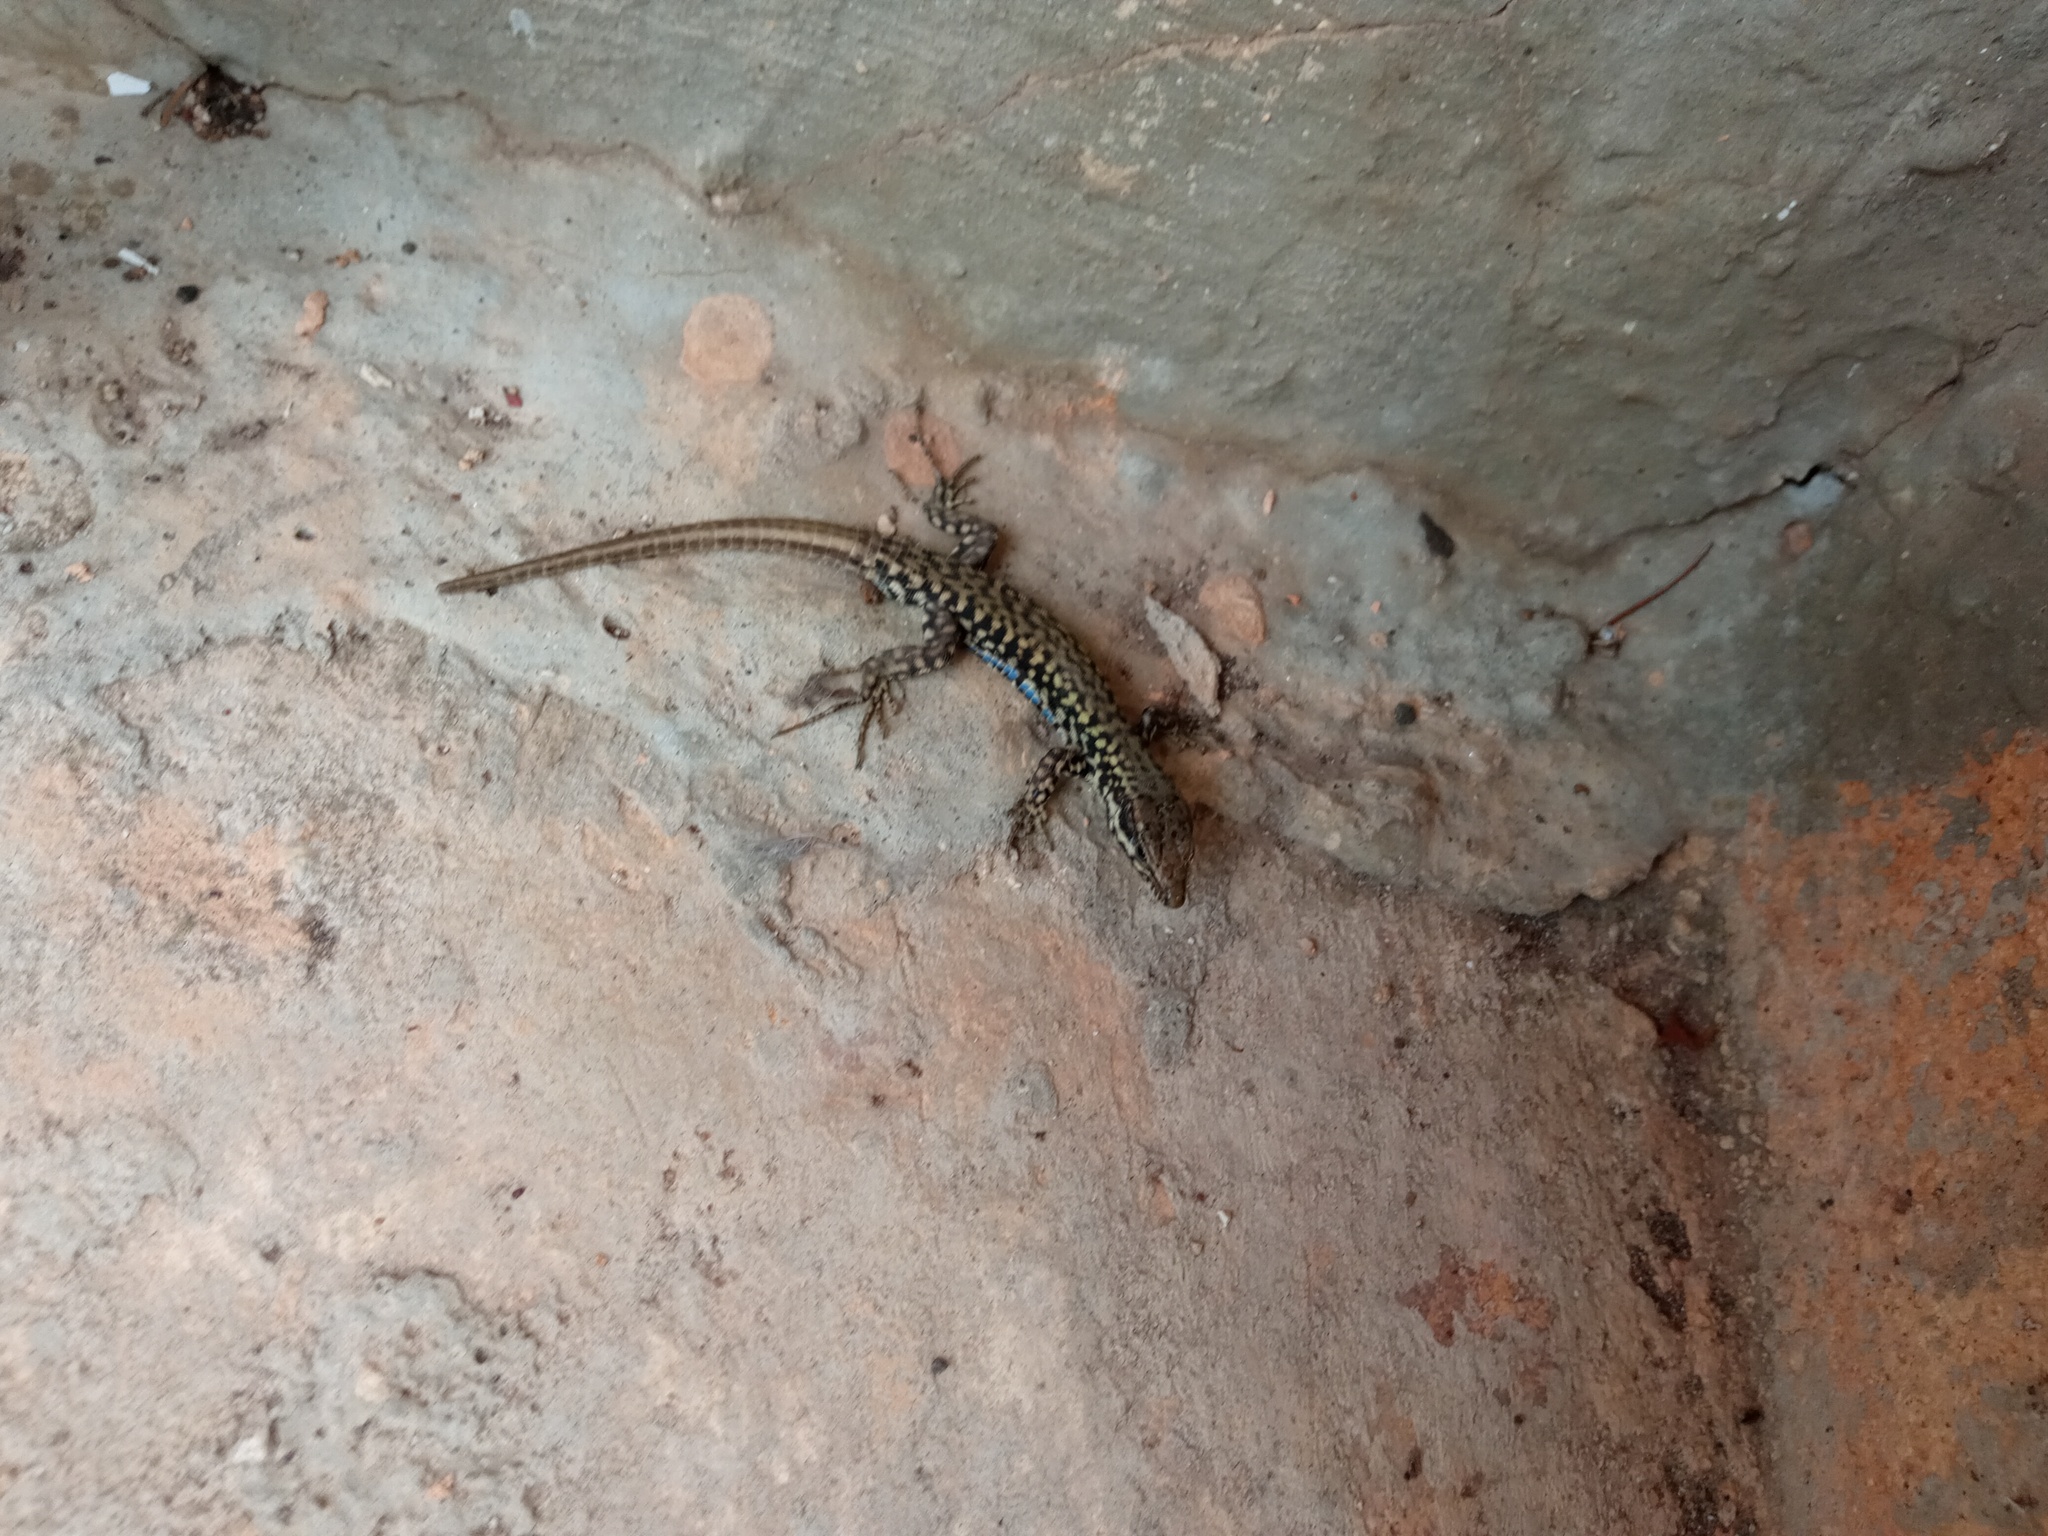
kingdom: Animalia
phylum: Chordata
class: Squamata
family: Lacertidae
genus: Podarcis
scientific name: Podarcis muralis
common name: Common wall lizard
